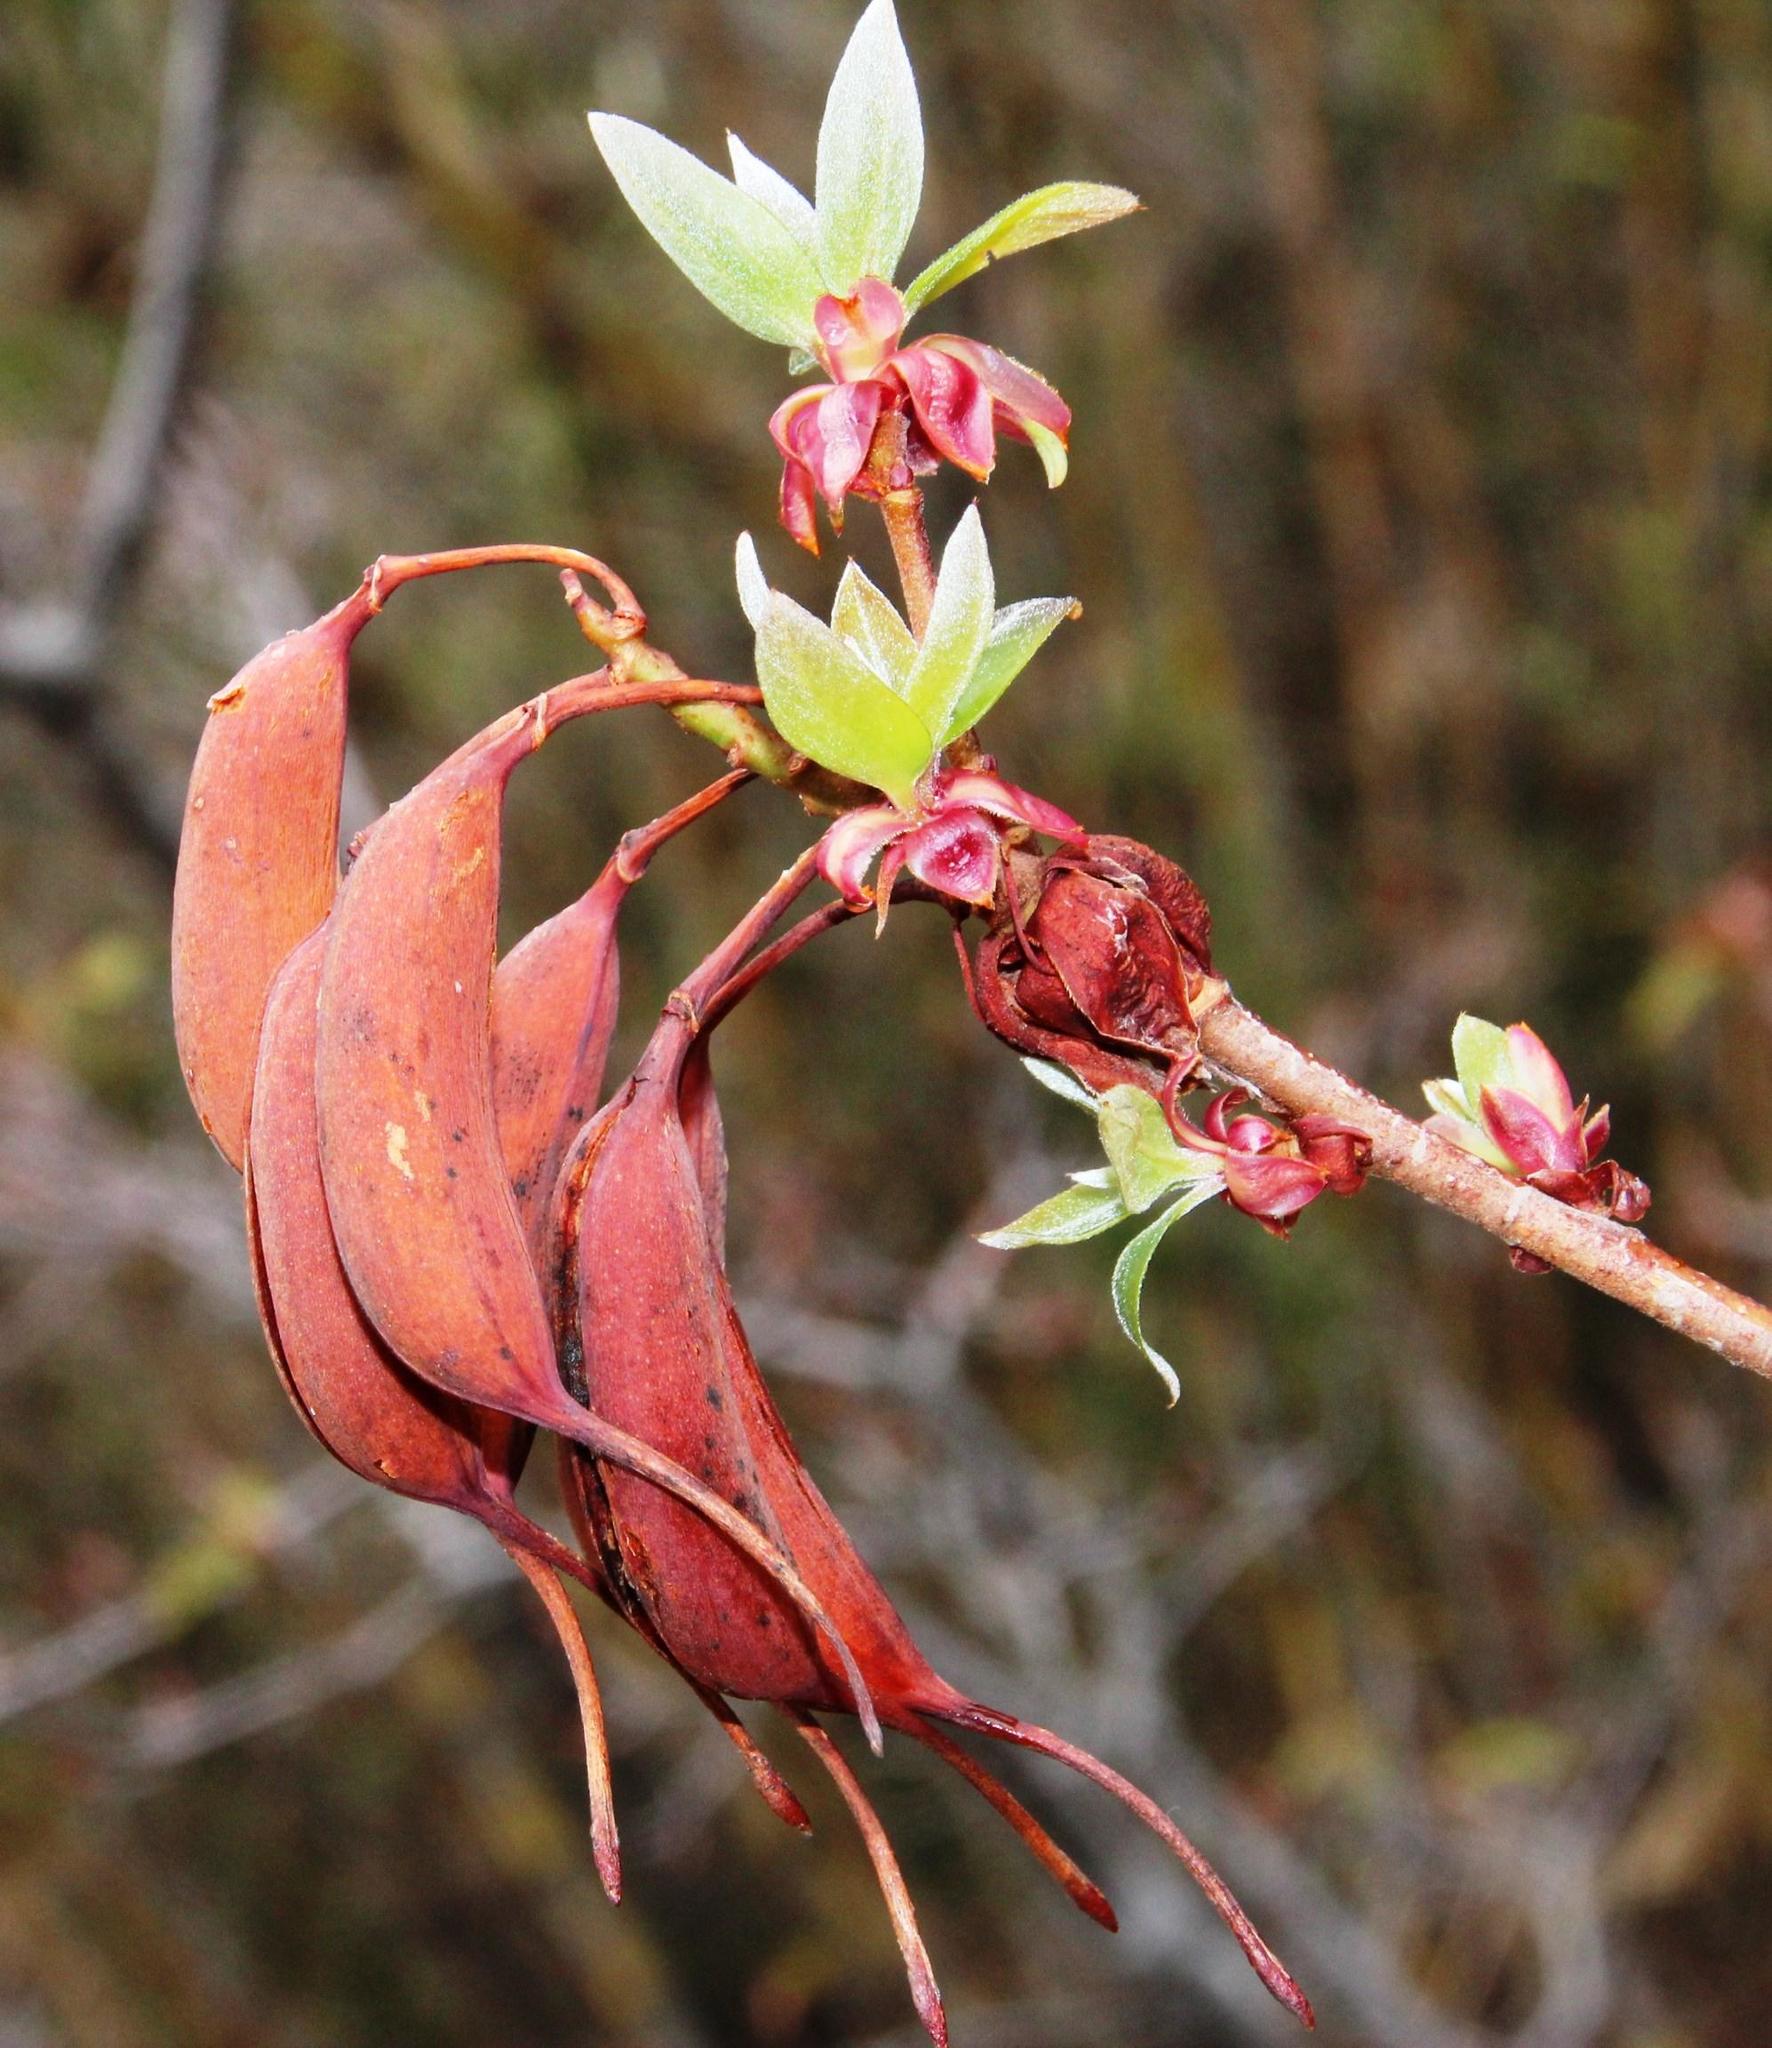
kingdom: Plantae
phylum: Tracheophyta
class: Magnoliopsida
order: Proteales
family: Proteaceae
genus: Embothrium
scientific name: Embothrium coccineum
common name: Chilean firebush
